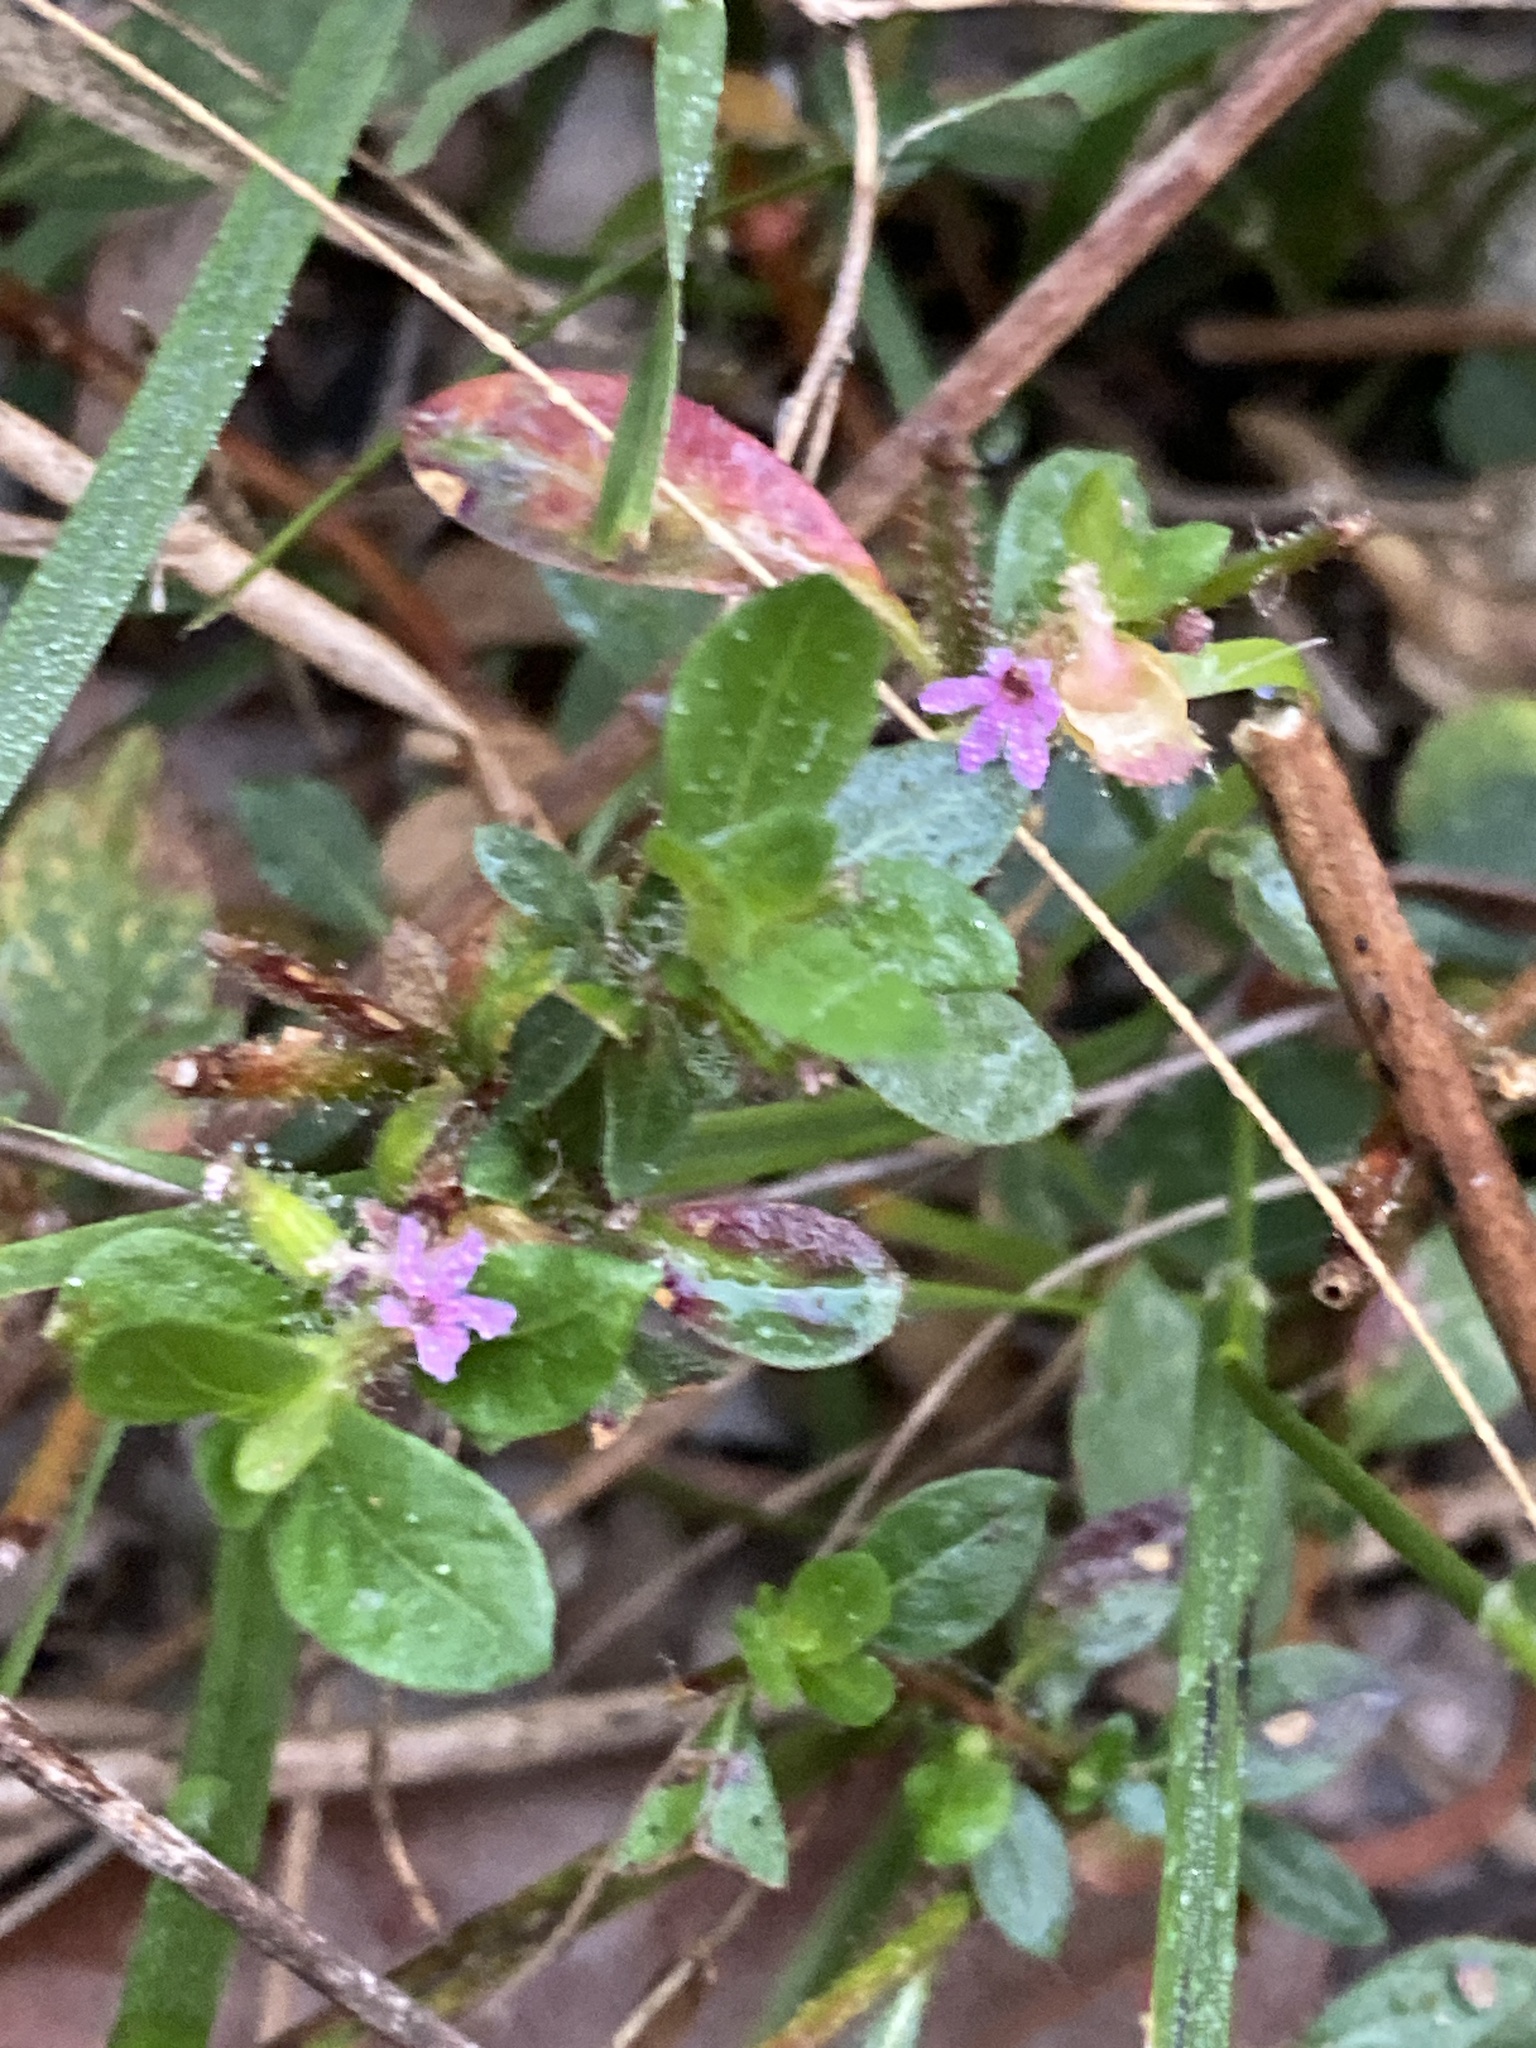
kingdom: Plantae
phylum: Tracheophyta
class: Magnoliopsida
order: Myrtales
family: Lythraceae
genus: Cuphea
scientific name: Cuphea carthagenensis
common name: Colombian waxweed
